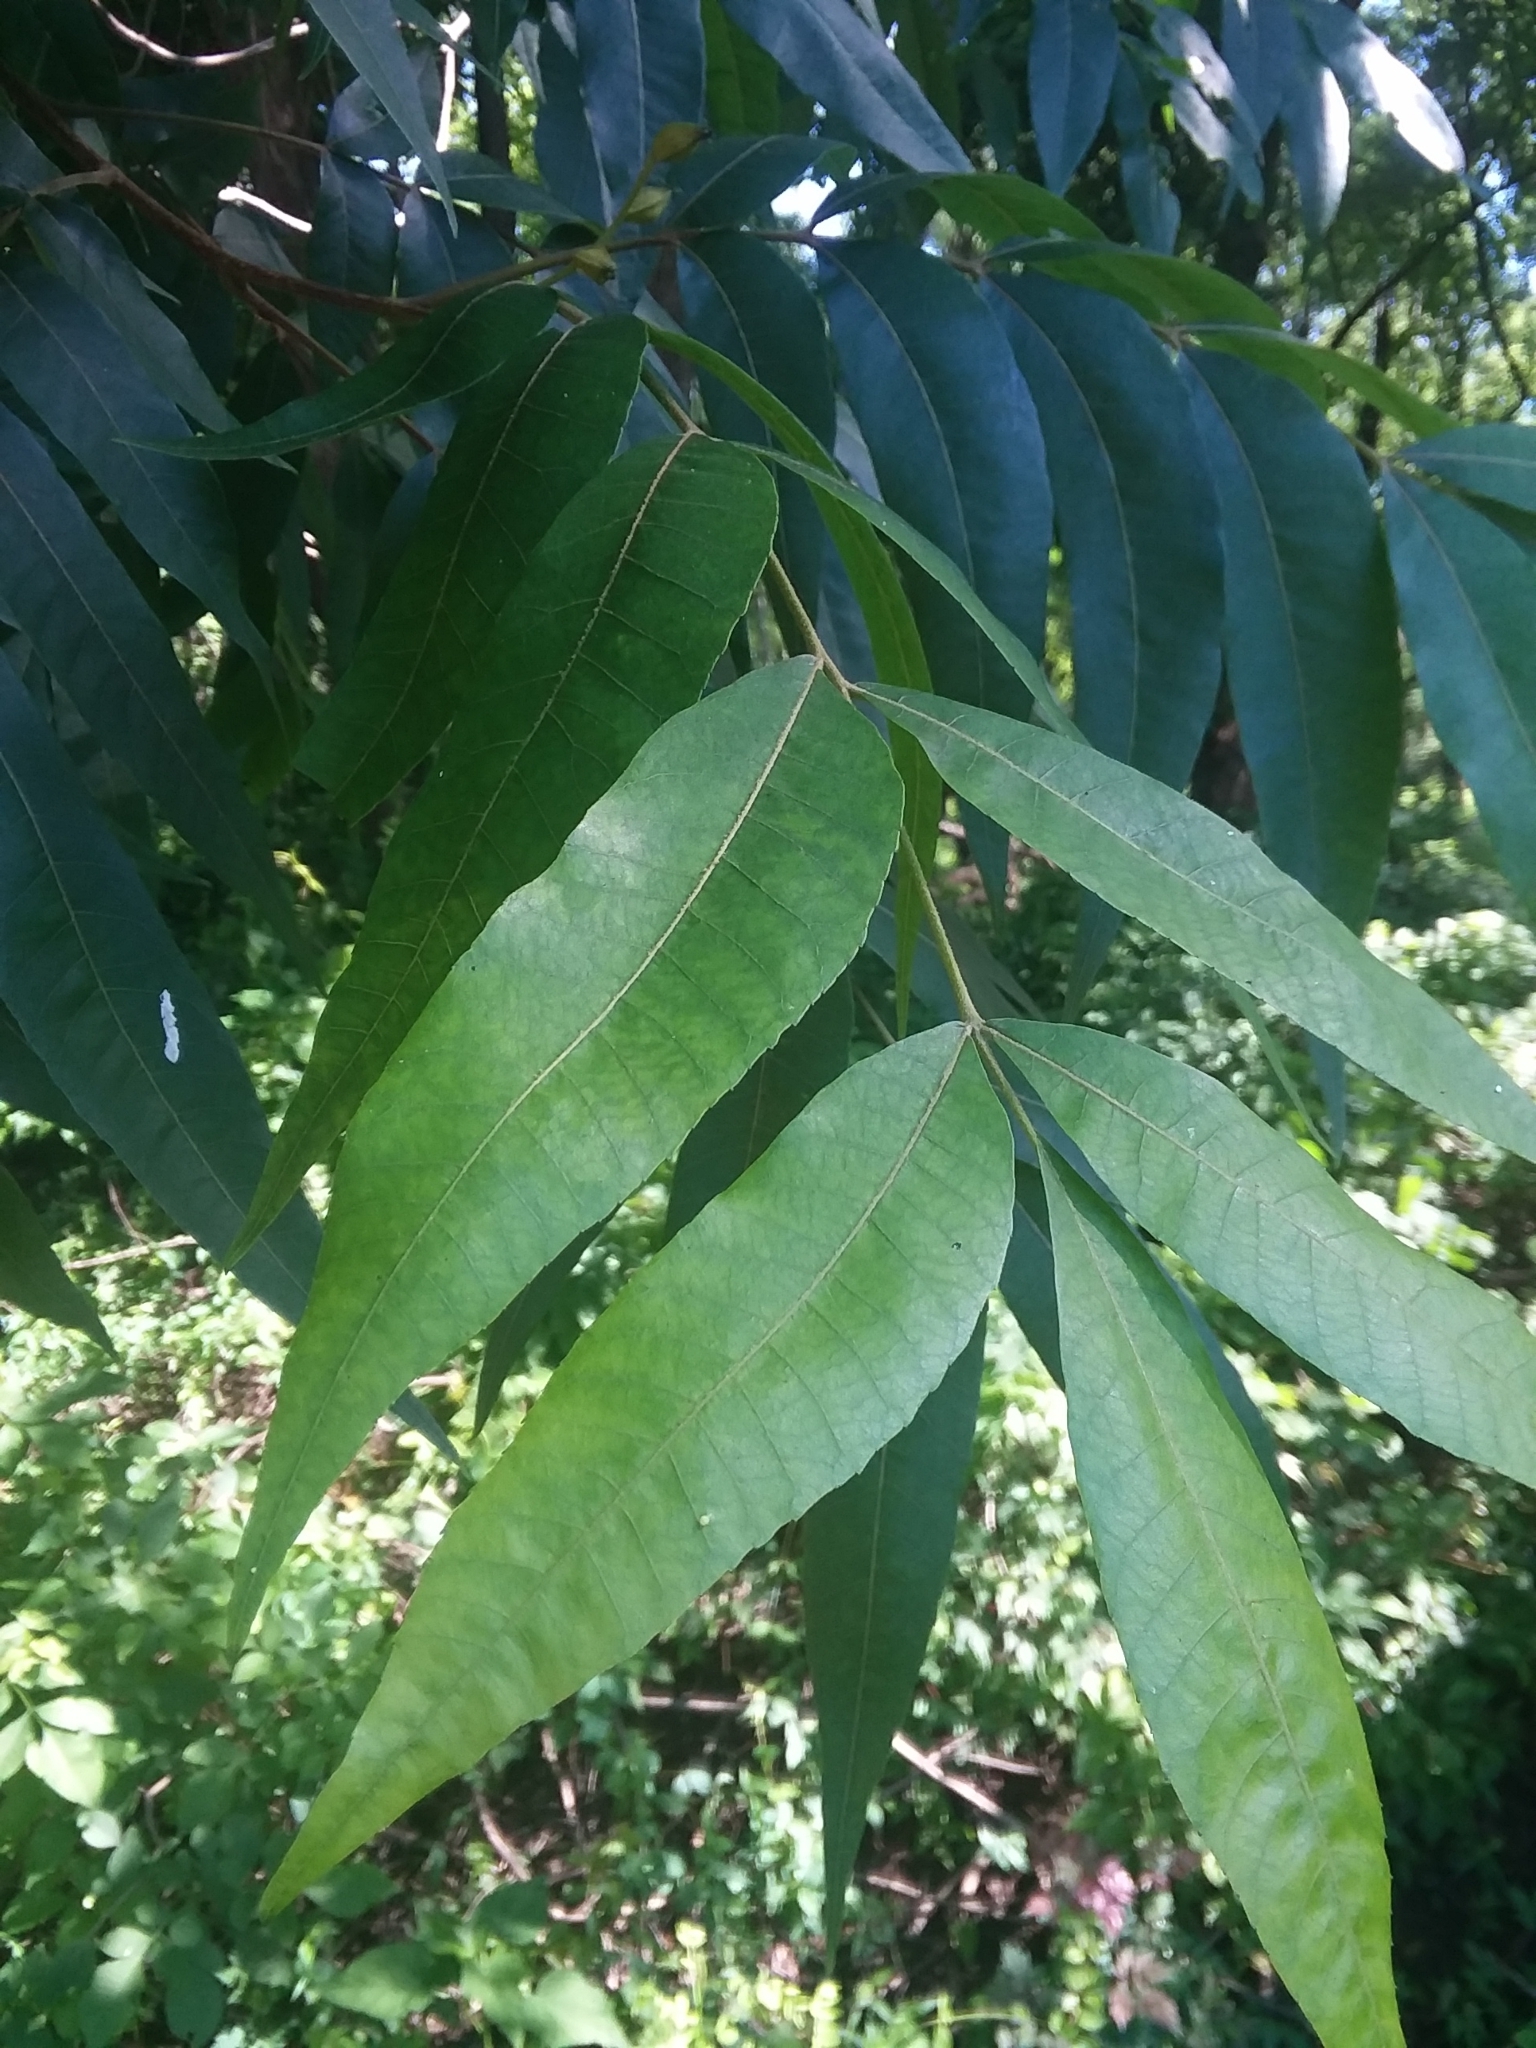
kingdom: Plantae
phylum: Tracheophyta
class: Magnoliopsida
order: Fagales
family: Juglandaceae
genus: Carya
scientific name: Carya aquatica
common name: Water hickory
